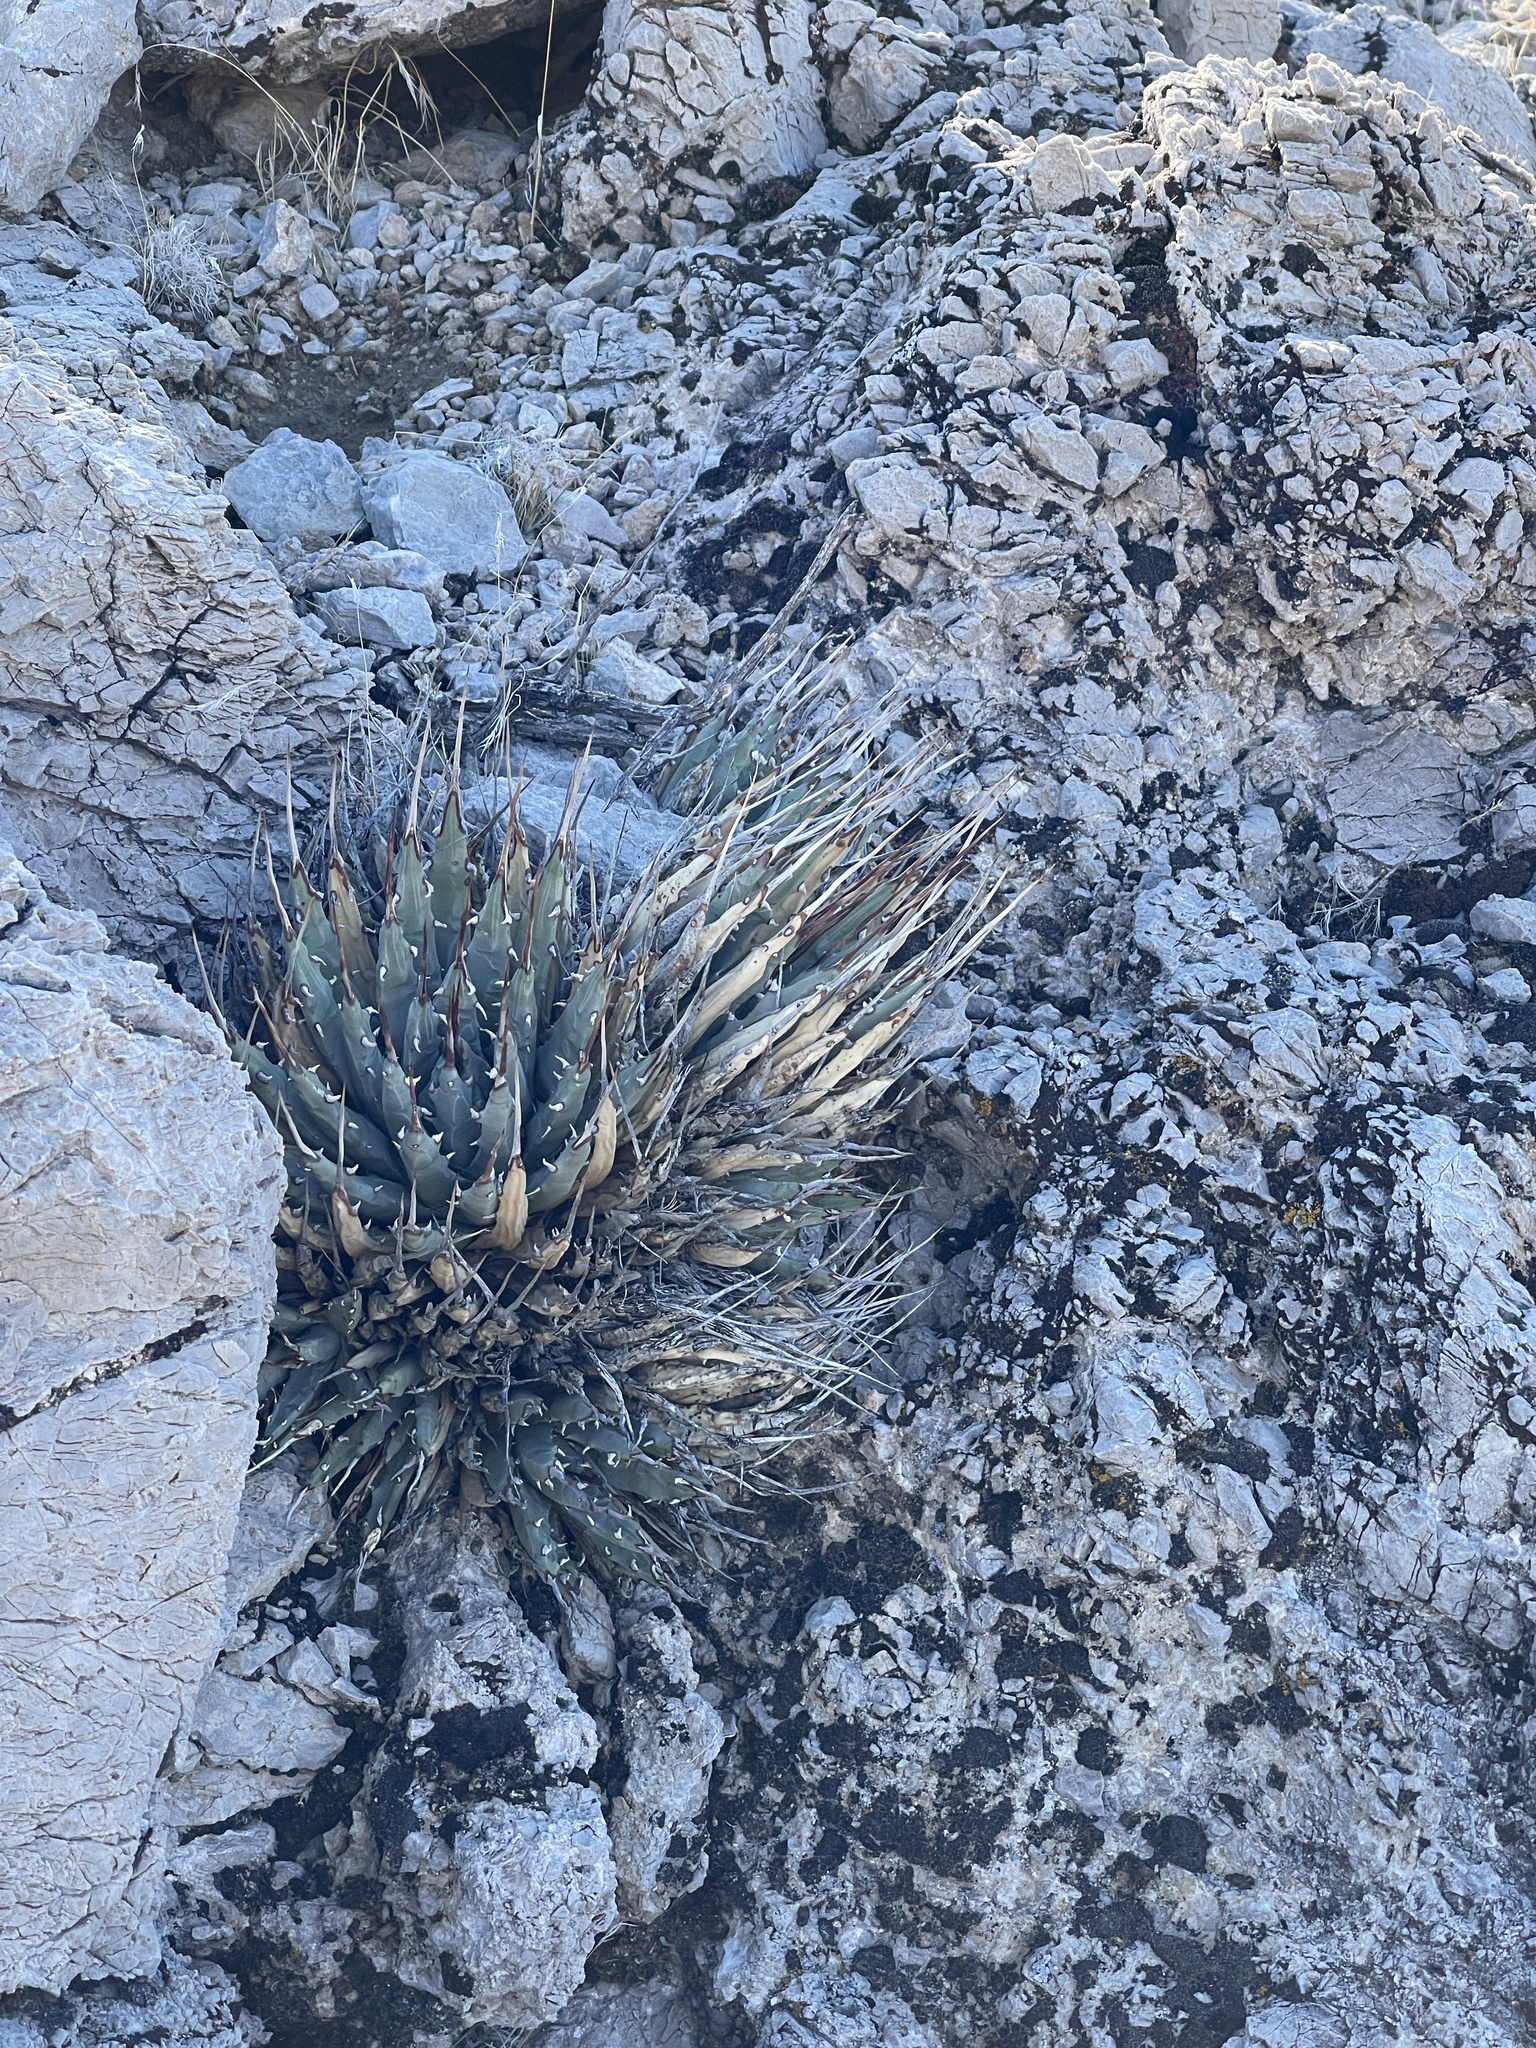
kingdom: Plantae
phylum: Tracheophyta
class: Liliopsida
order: Asparagales
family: Asparagaceae
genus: Agave
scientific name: Agave utahensis
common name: Utah agave
